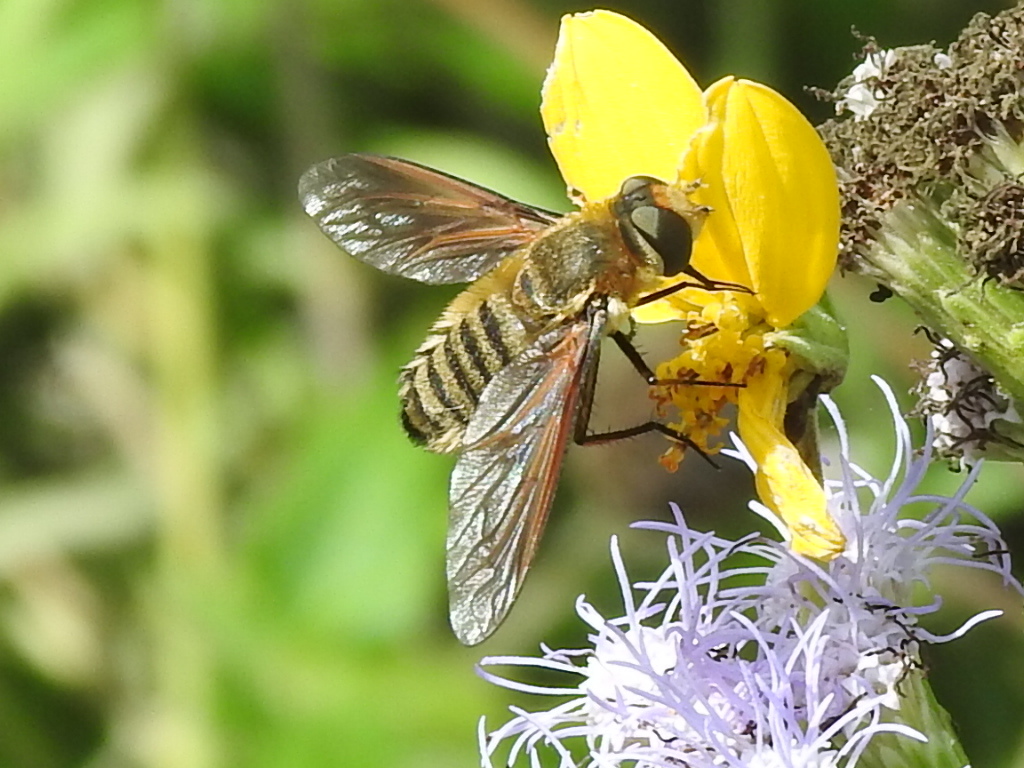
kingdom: Animalia
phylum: Arthropoda
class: Insecta
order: Diptera
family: Bombyliidae
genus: Poecilanthrax
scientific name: Poecilanthrax lucifer
